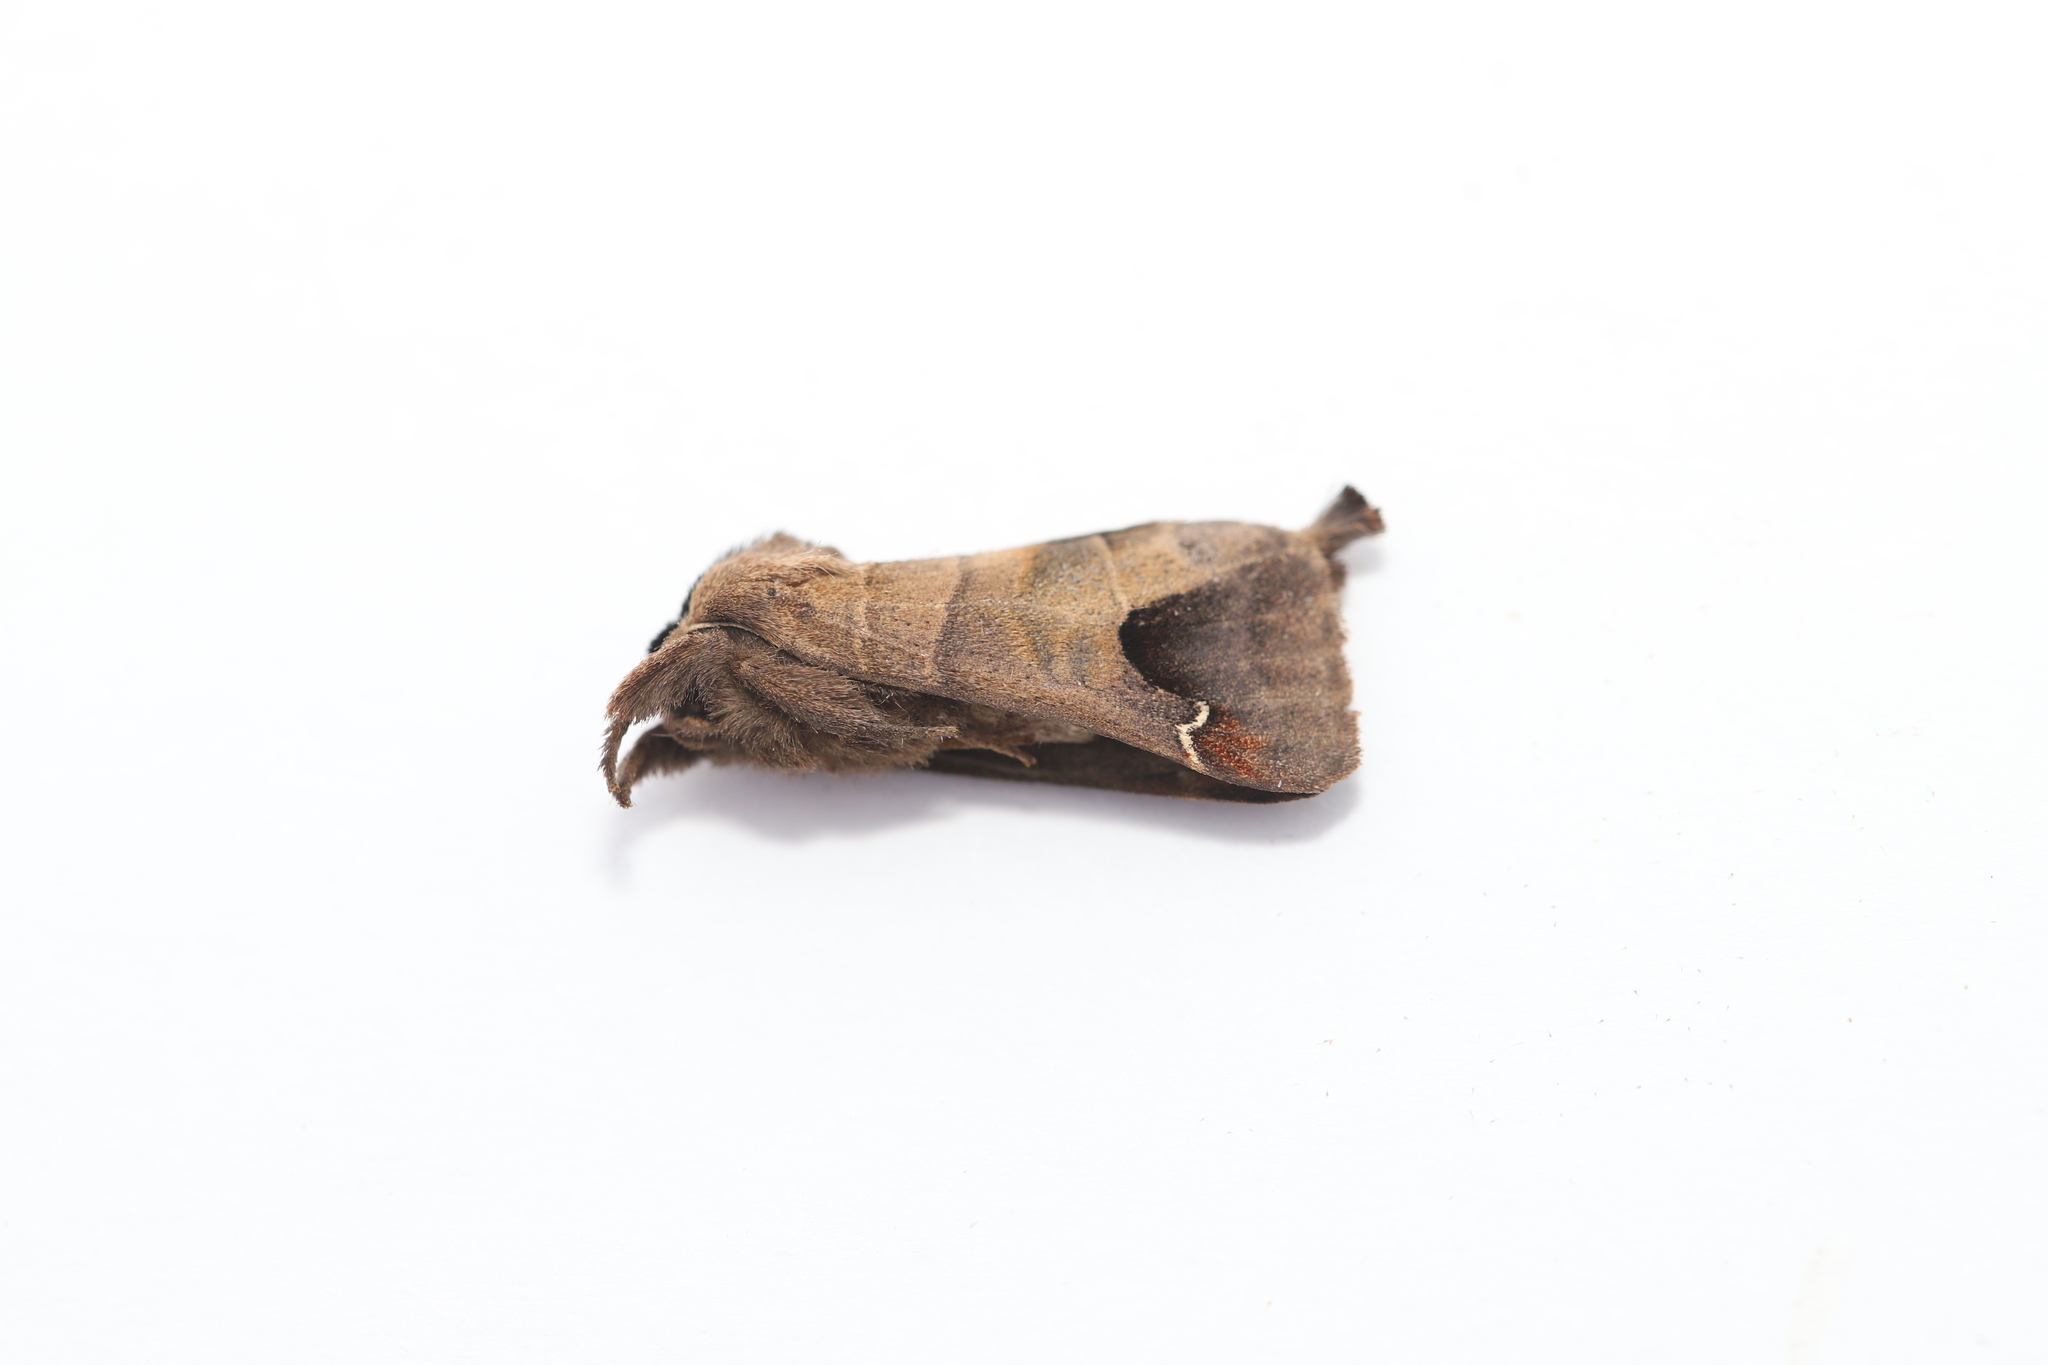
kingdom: Animalia
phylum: Arthropoda
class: Insecta
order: Lepidoptera
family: Notodontidae
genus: Clostera
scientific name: Clostera albosigma
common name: Sigmoid prominent
